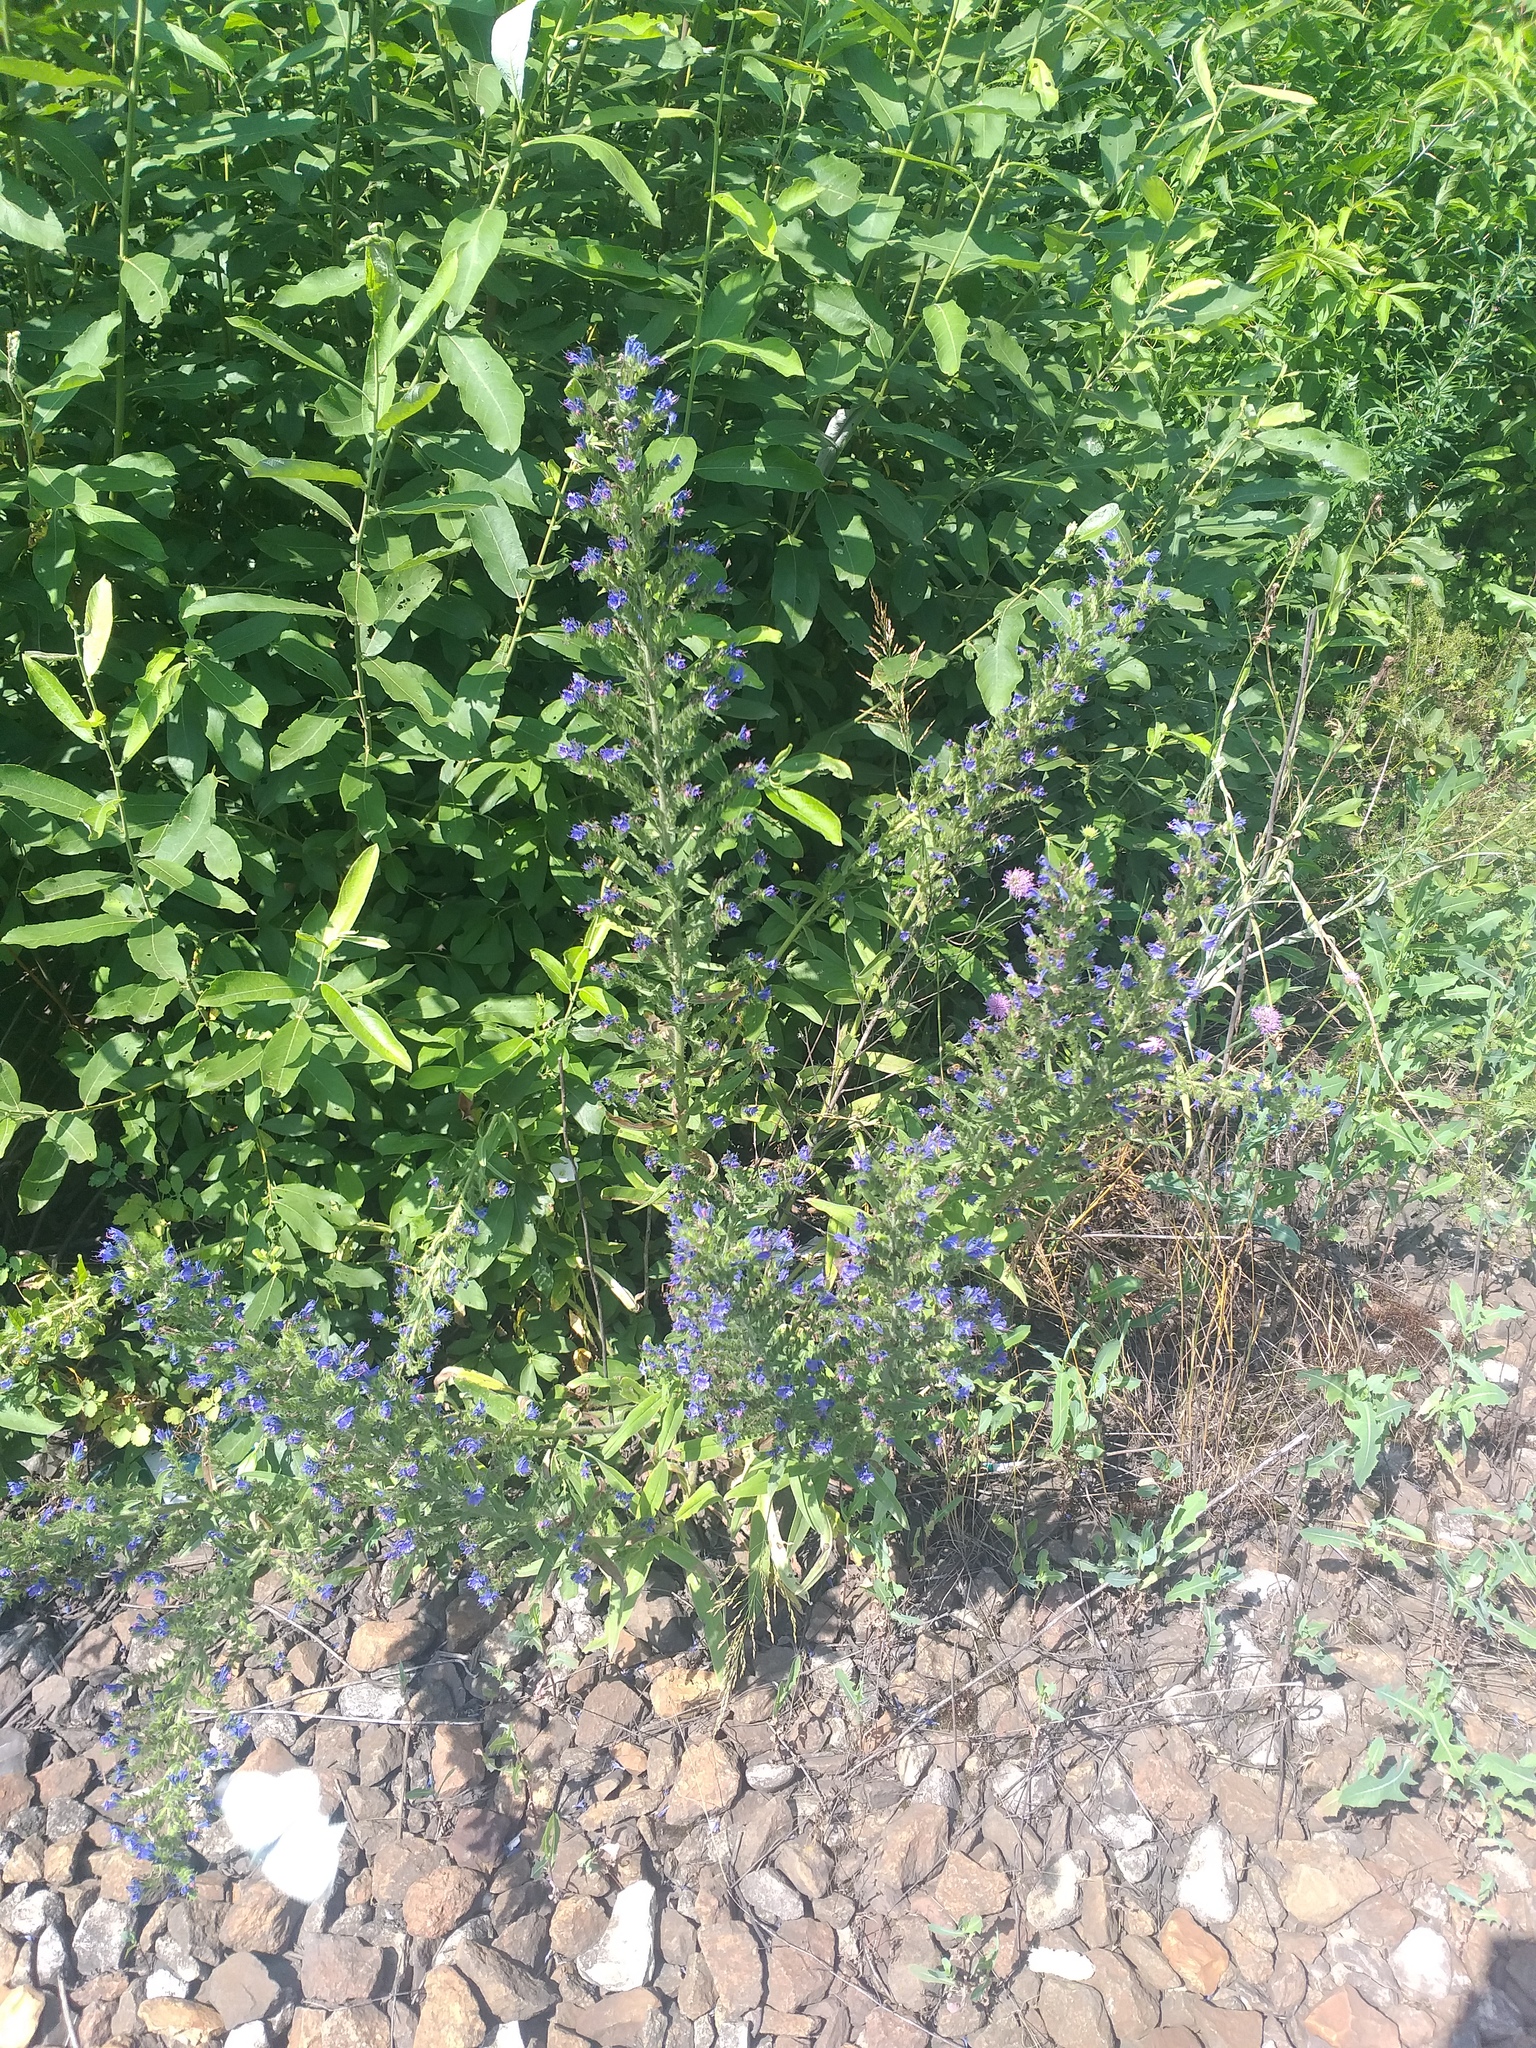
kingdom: Plantae
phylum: Tracheophyta
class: Magnoliopsida
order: Boraginales
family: Boraginaceae
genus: Echium
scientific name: Echium vulgare
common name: Common viper's bugloss
